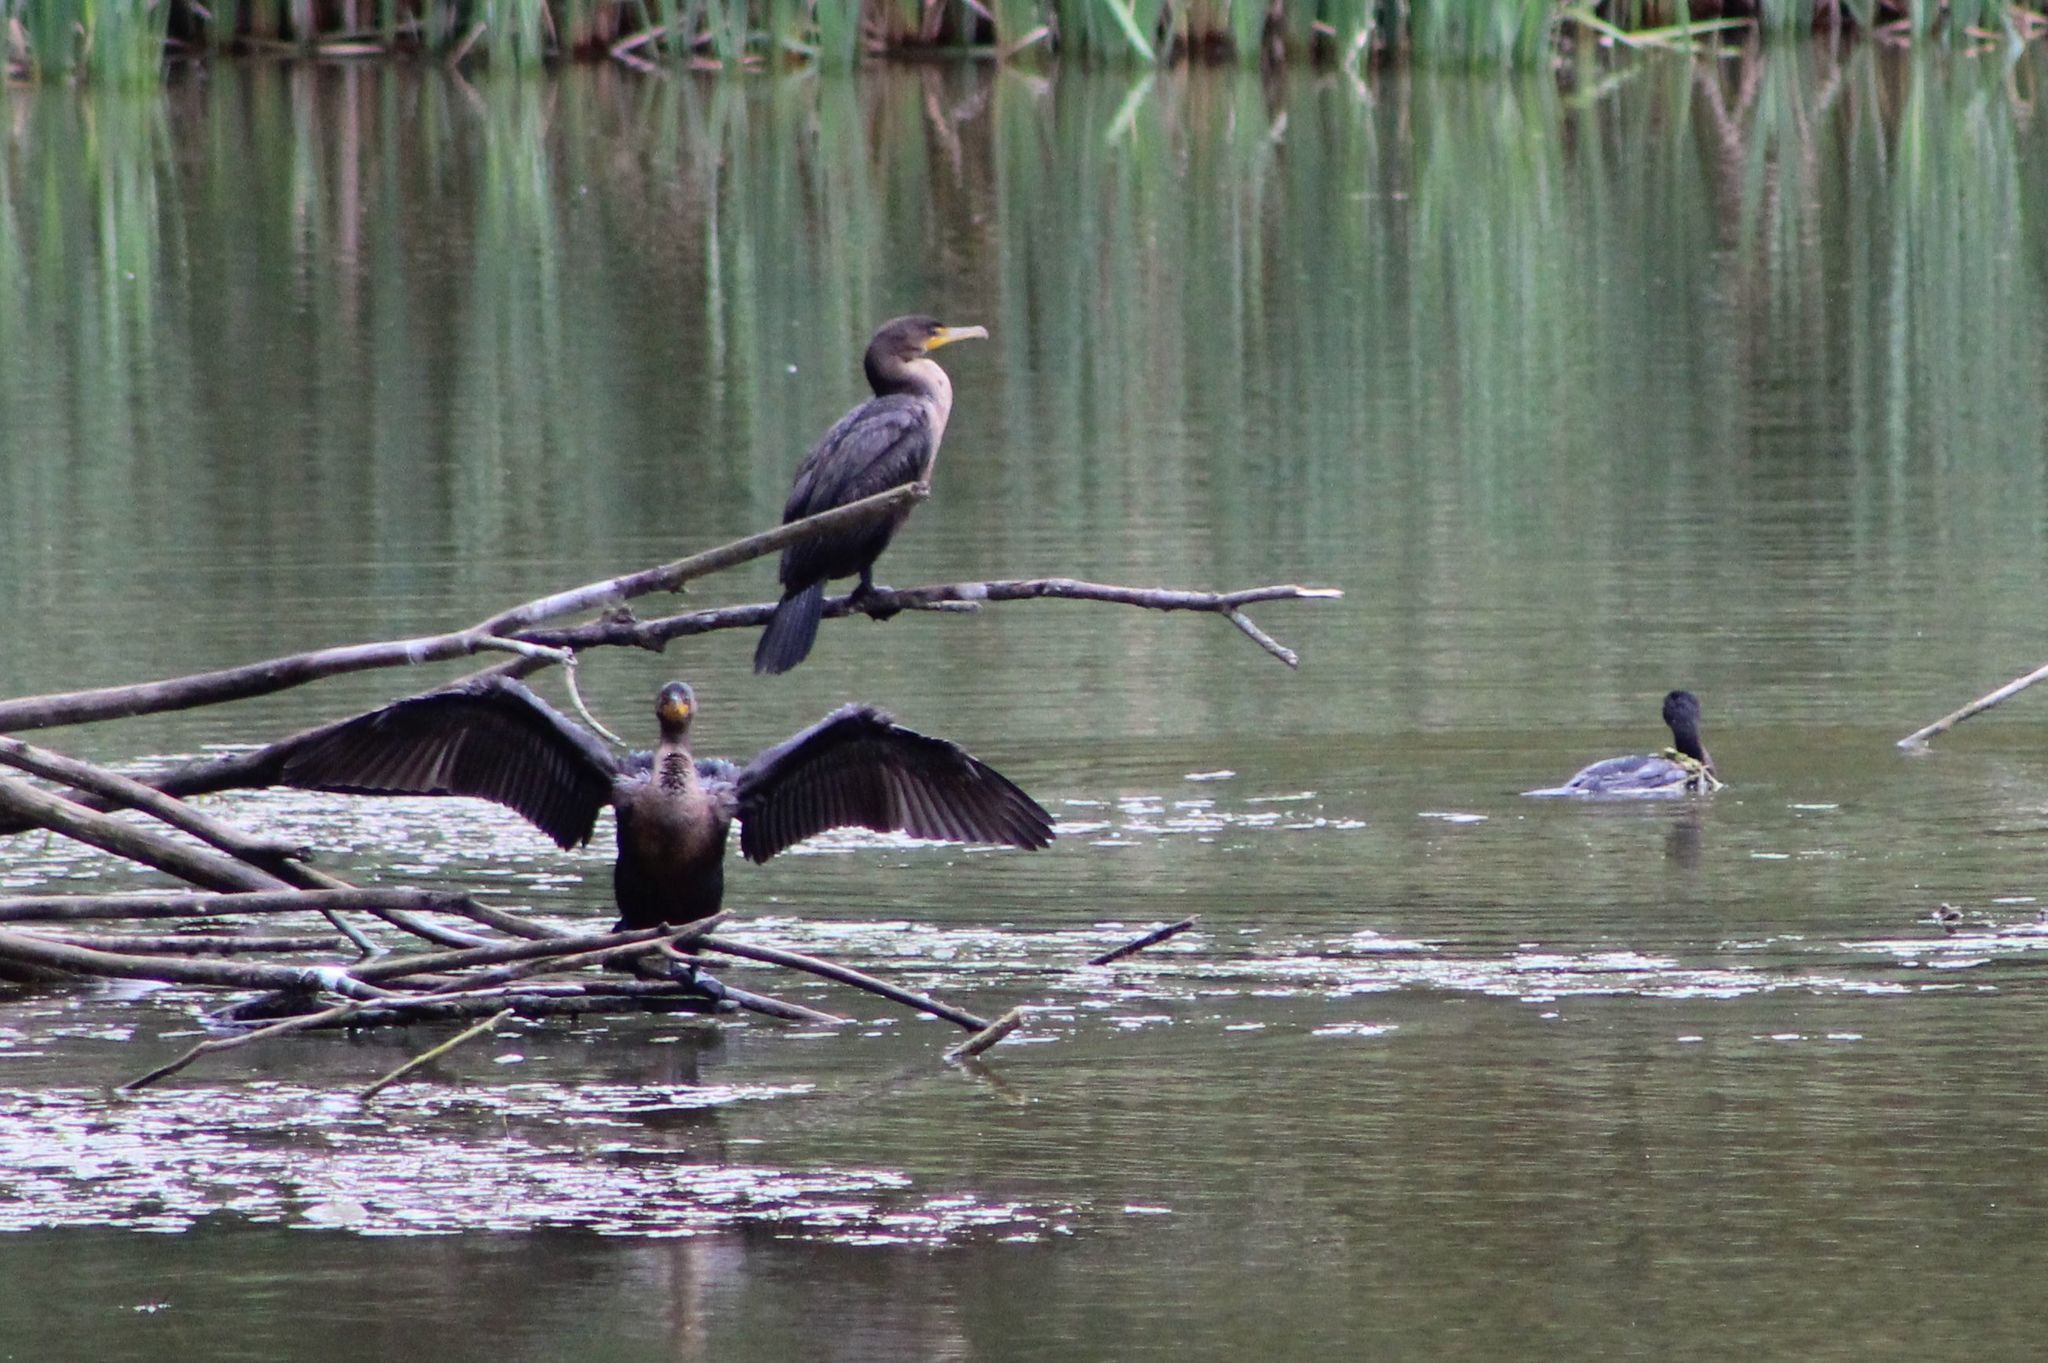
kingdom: Animalia
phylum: Chordata
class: Aves
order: Suliformes
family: Phalacrocoracidae
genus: Phalacrocorax
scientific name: Phalacrocorax auritus
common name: Double-crested cormorant
